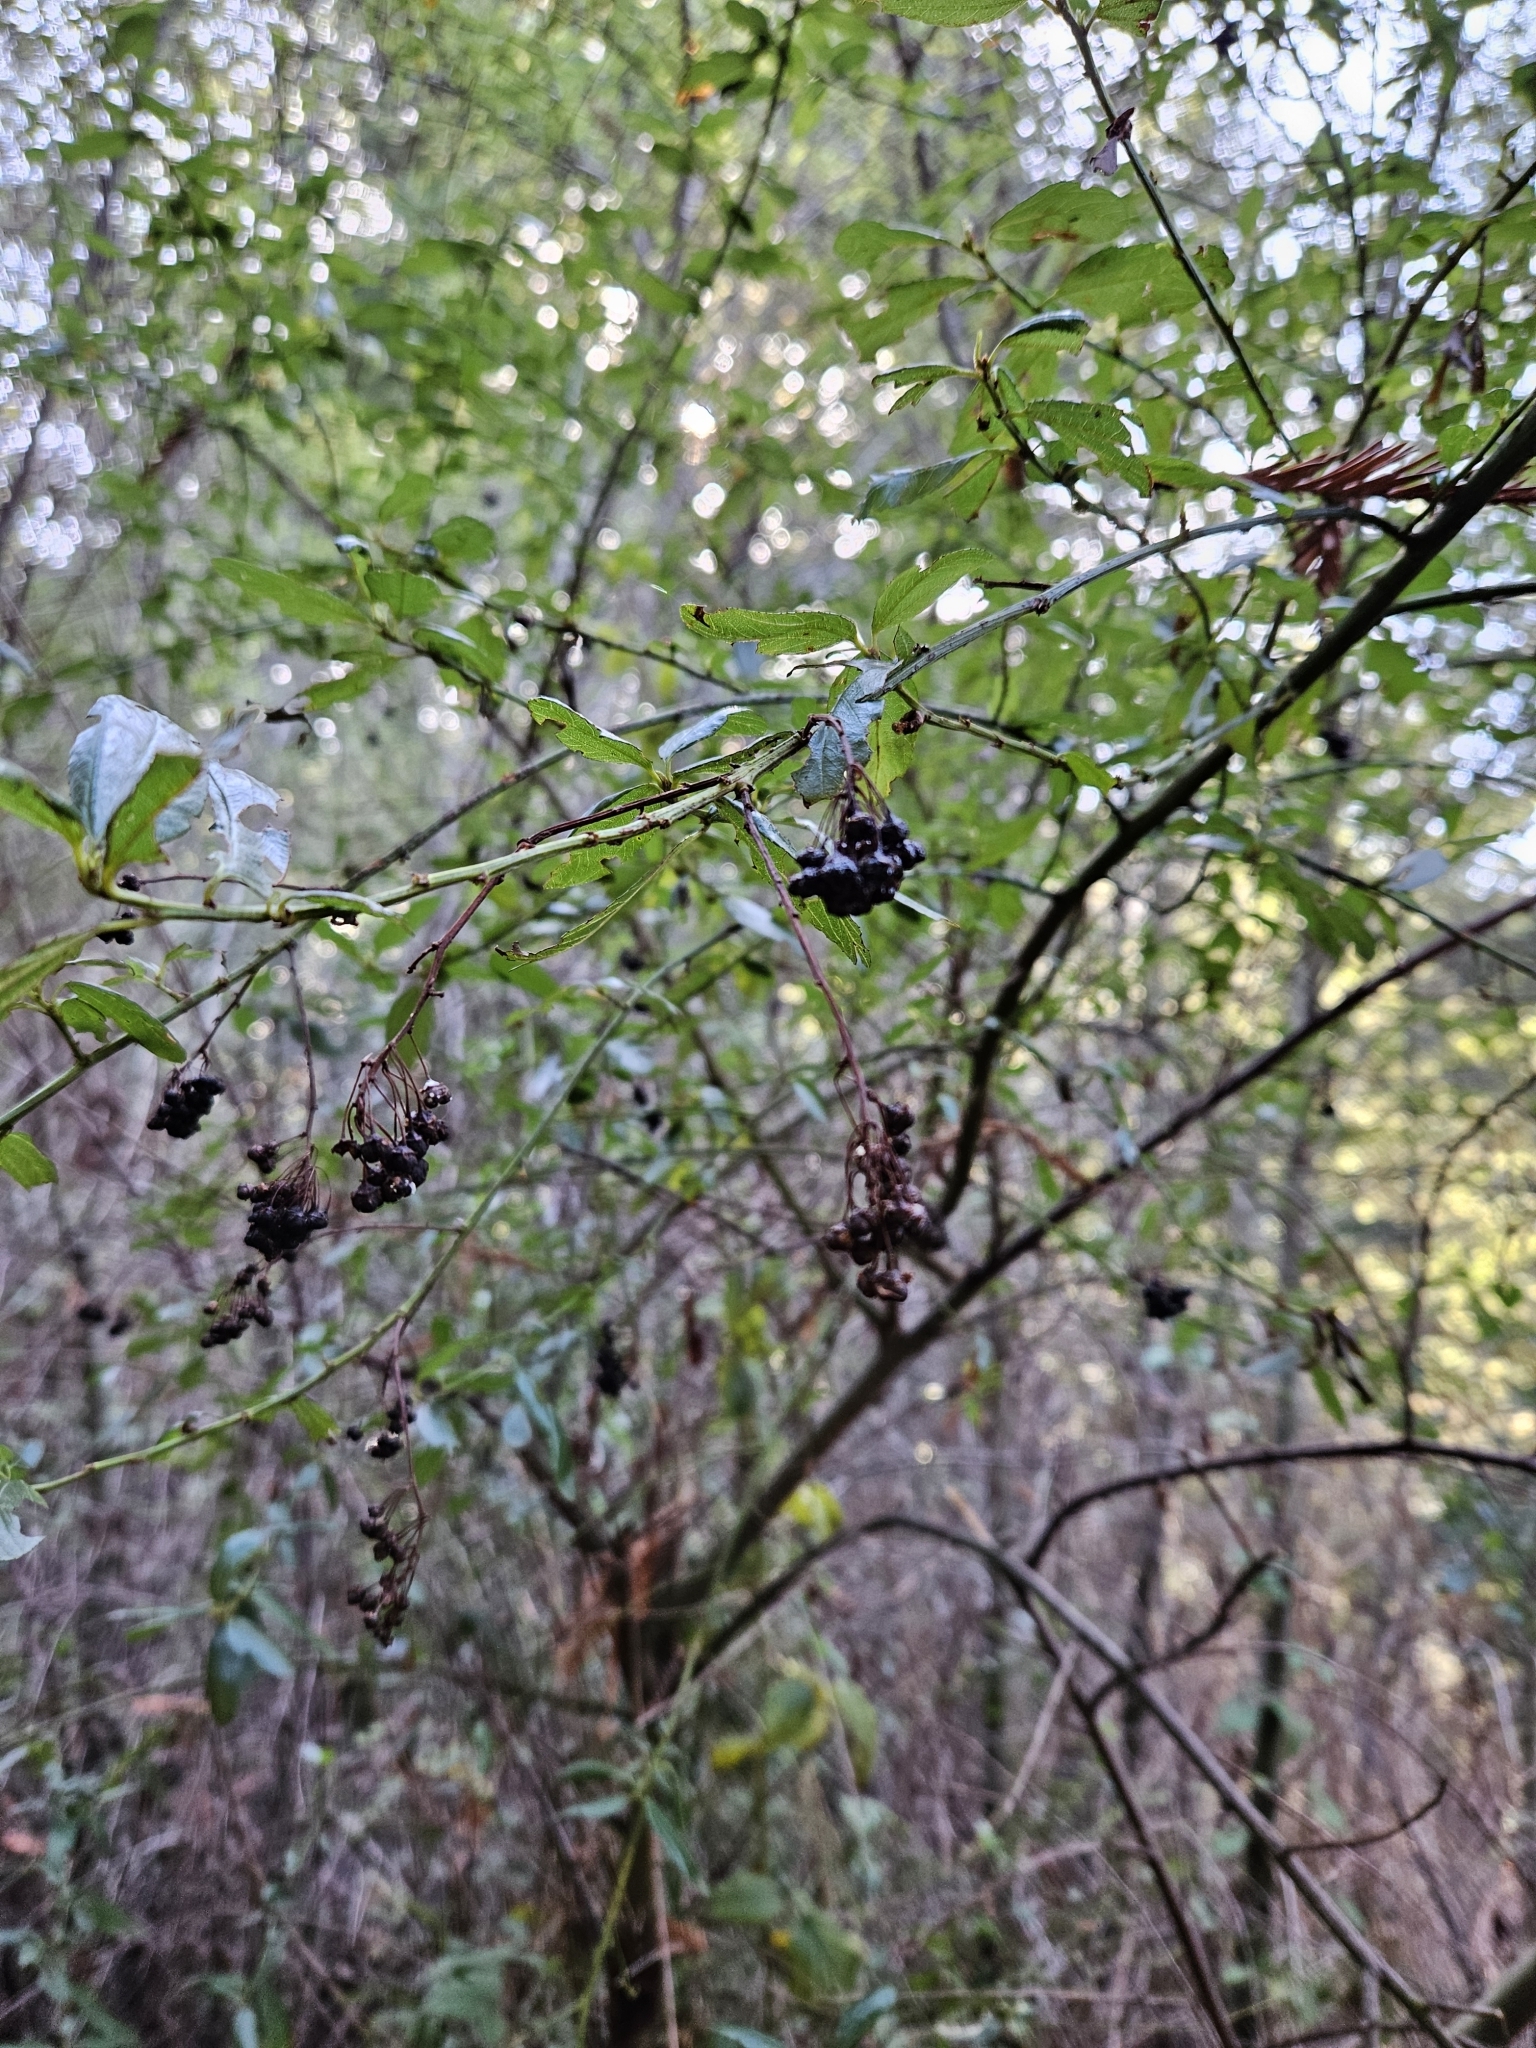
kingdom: Plantae
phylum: Tracheophyta
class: Magnoliopsida
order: Rosales
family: Rhamnaceae
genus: Ceanothus
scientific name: Ceanothus thyrsiflorus
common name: California-lilac
